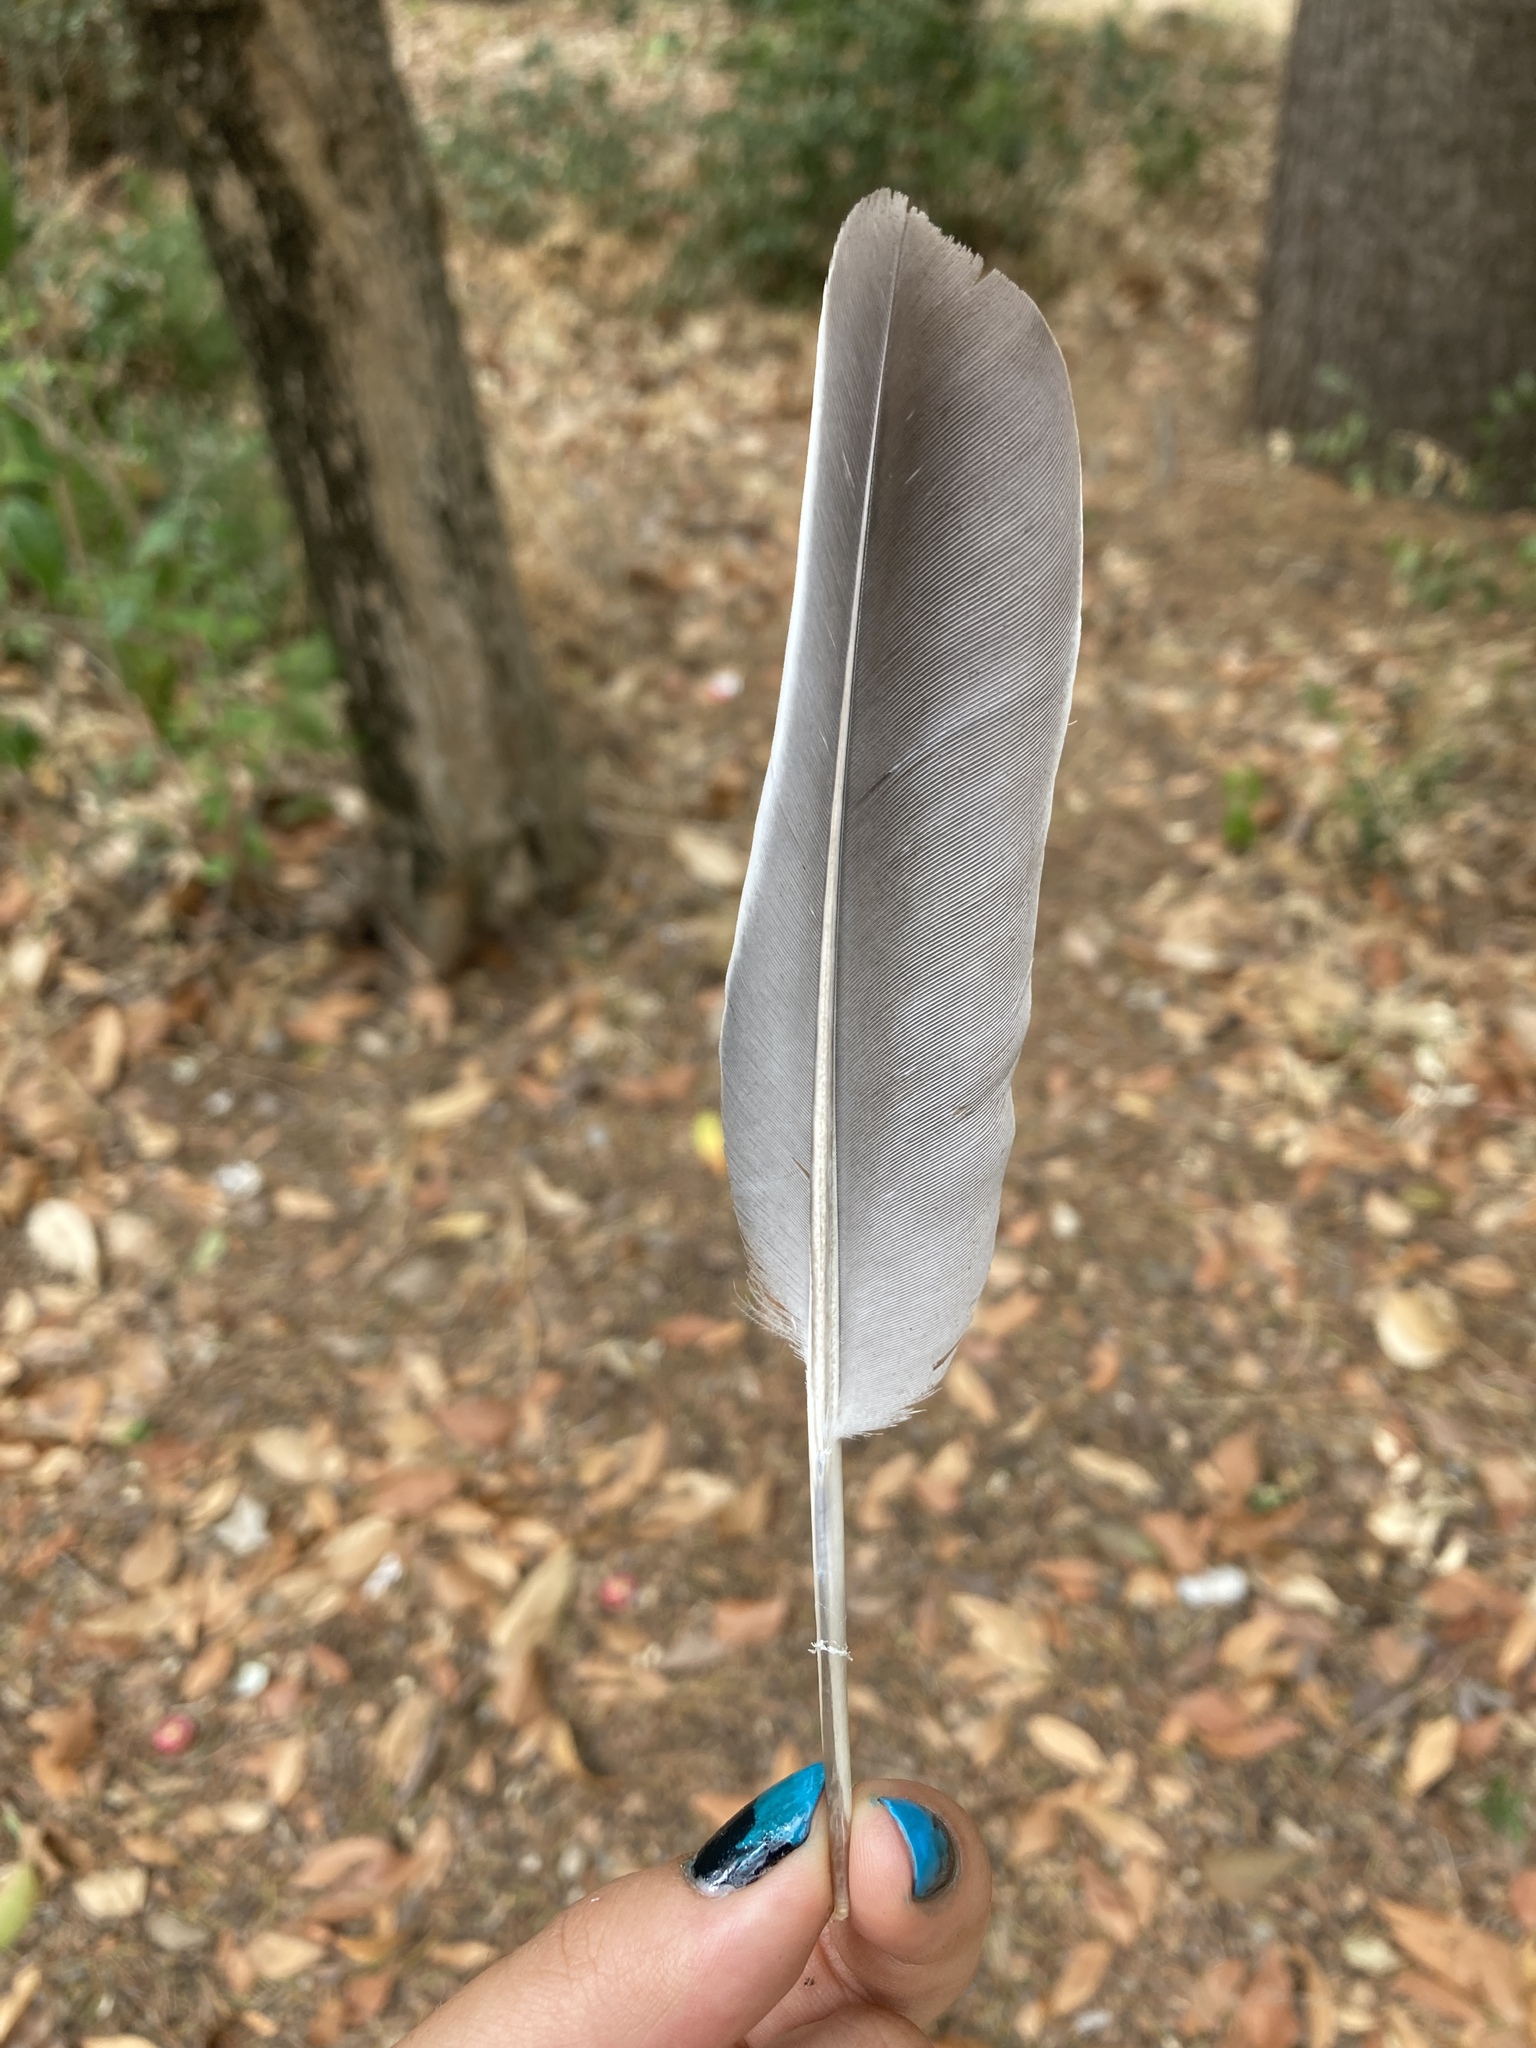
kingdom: Animalia
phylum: Chordata
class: Aves
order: Columbiformes
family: Columbidae
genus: Columba
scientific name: Columba palumbus
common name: Common wood pigeon
